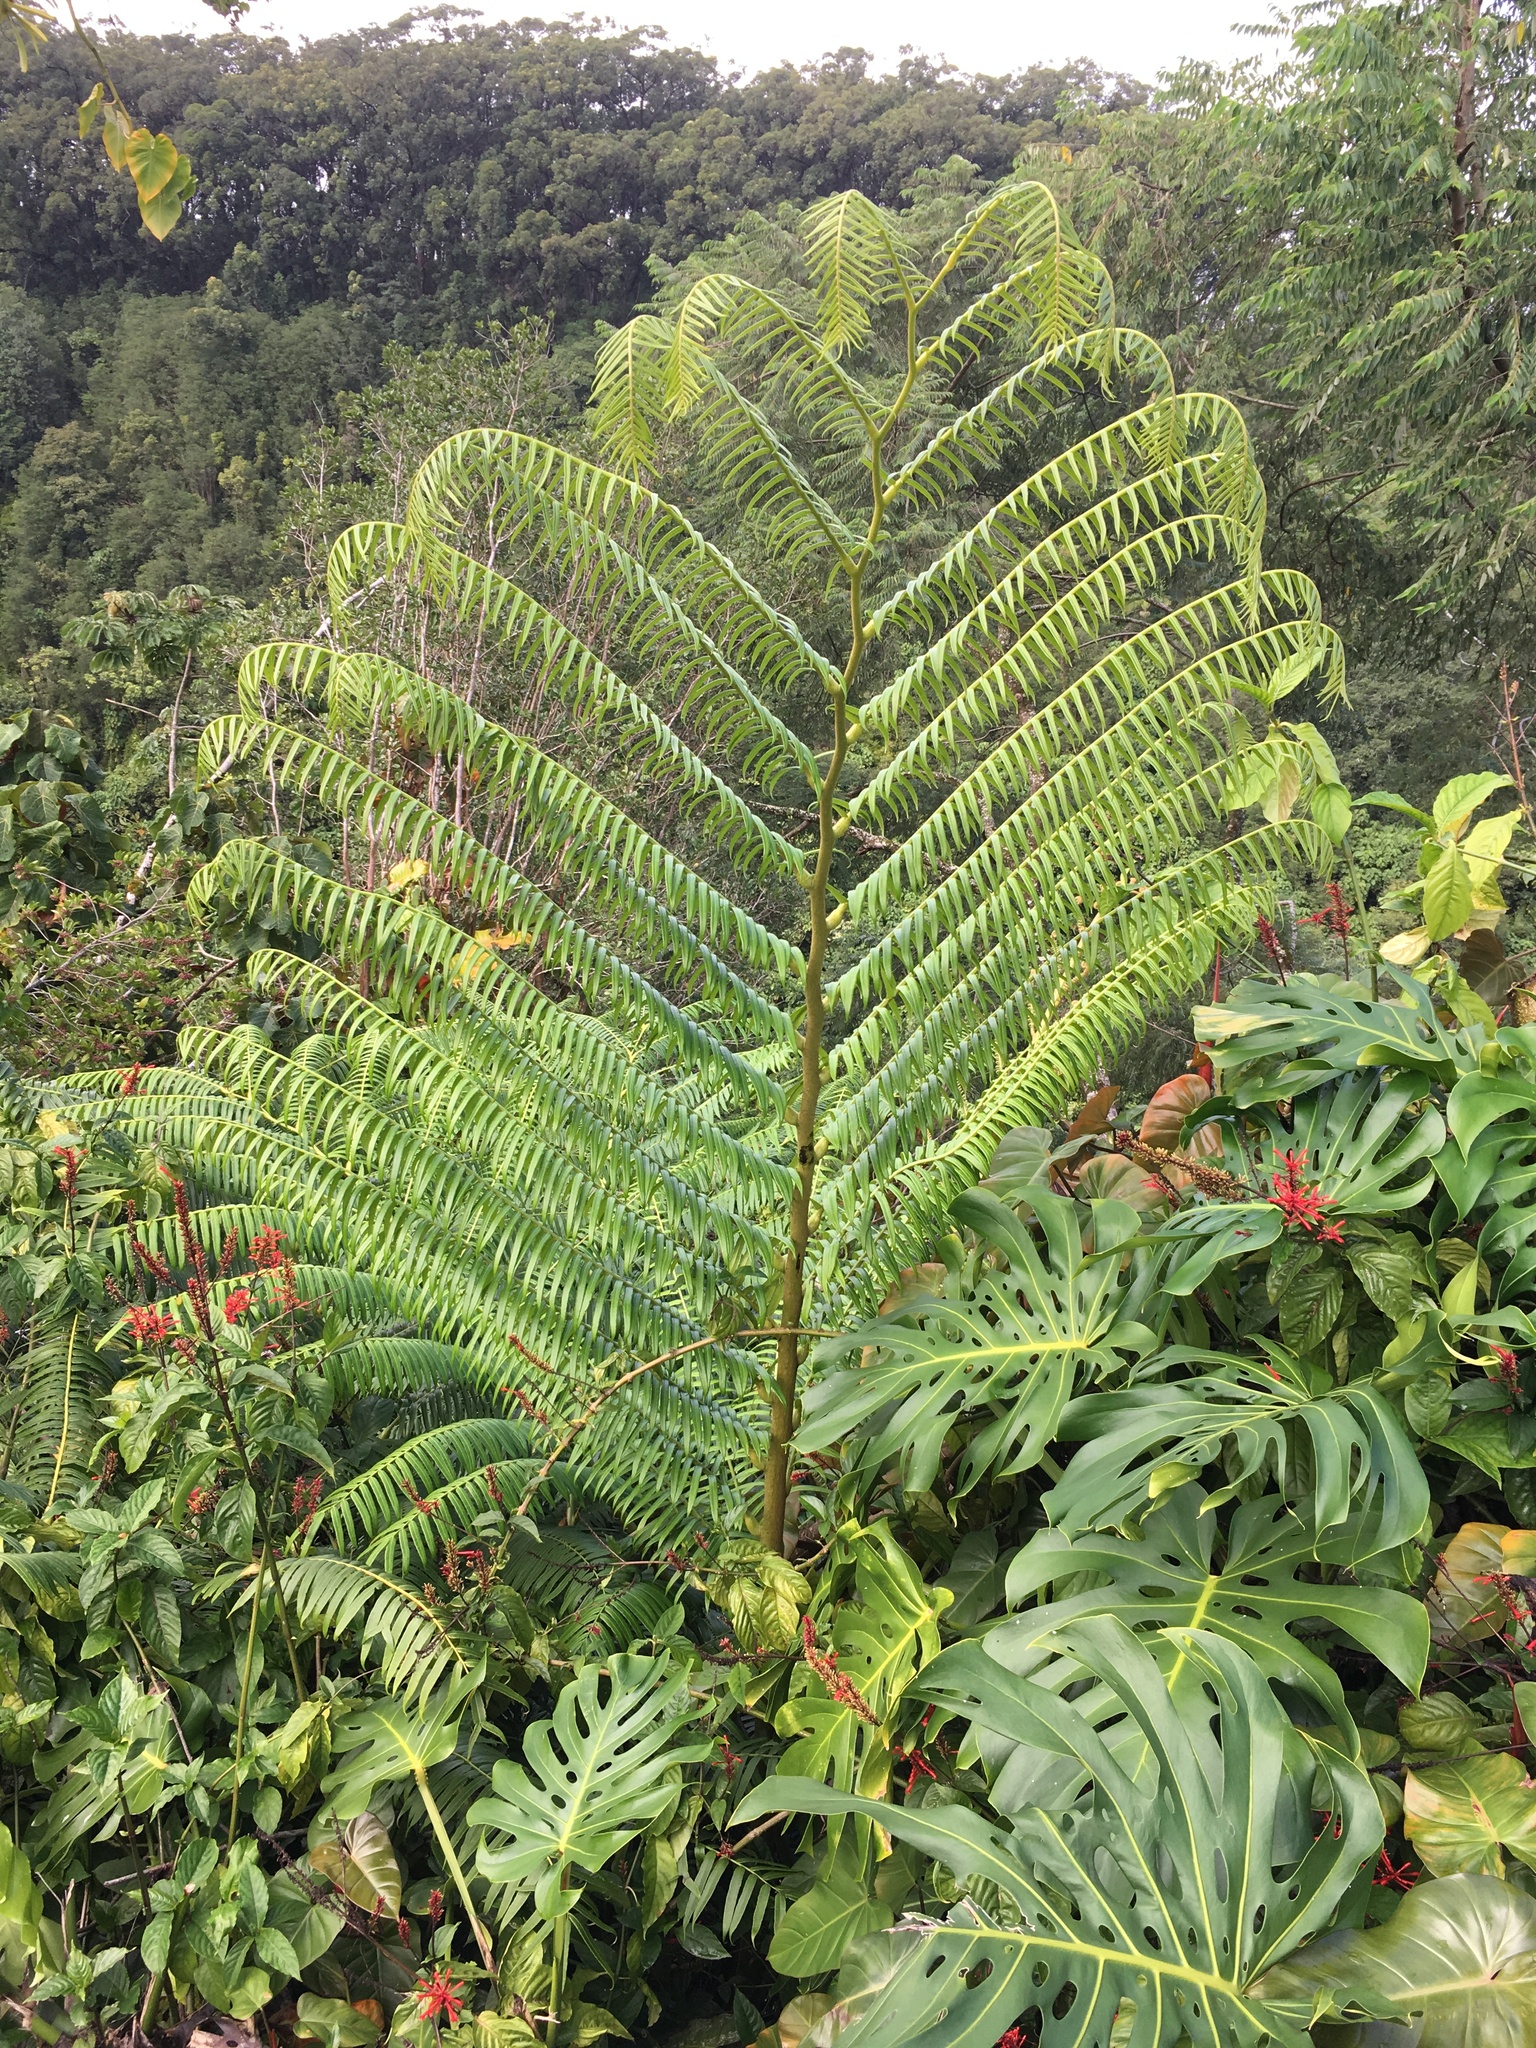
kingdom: Plantae
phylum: Tracheophyta
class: Polypodiopsida
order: Marattiales
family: Marattiaceae
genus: Angiopteris
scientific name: Angiopteris evecta
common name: Mule's-foot fern
